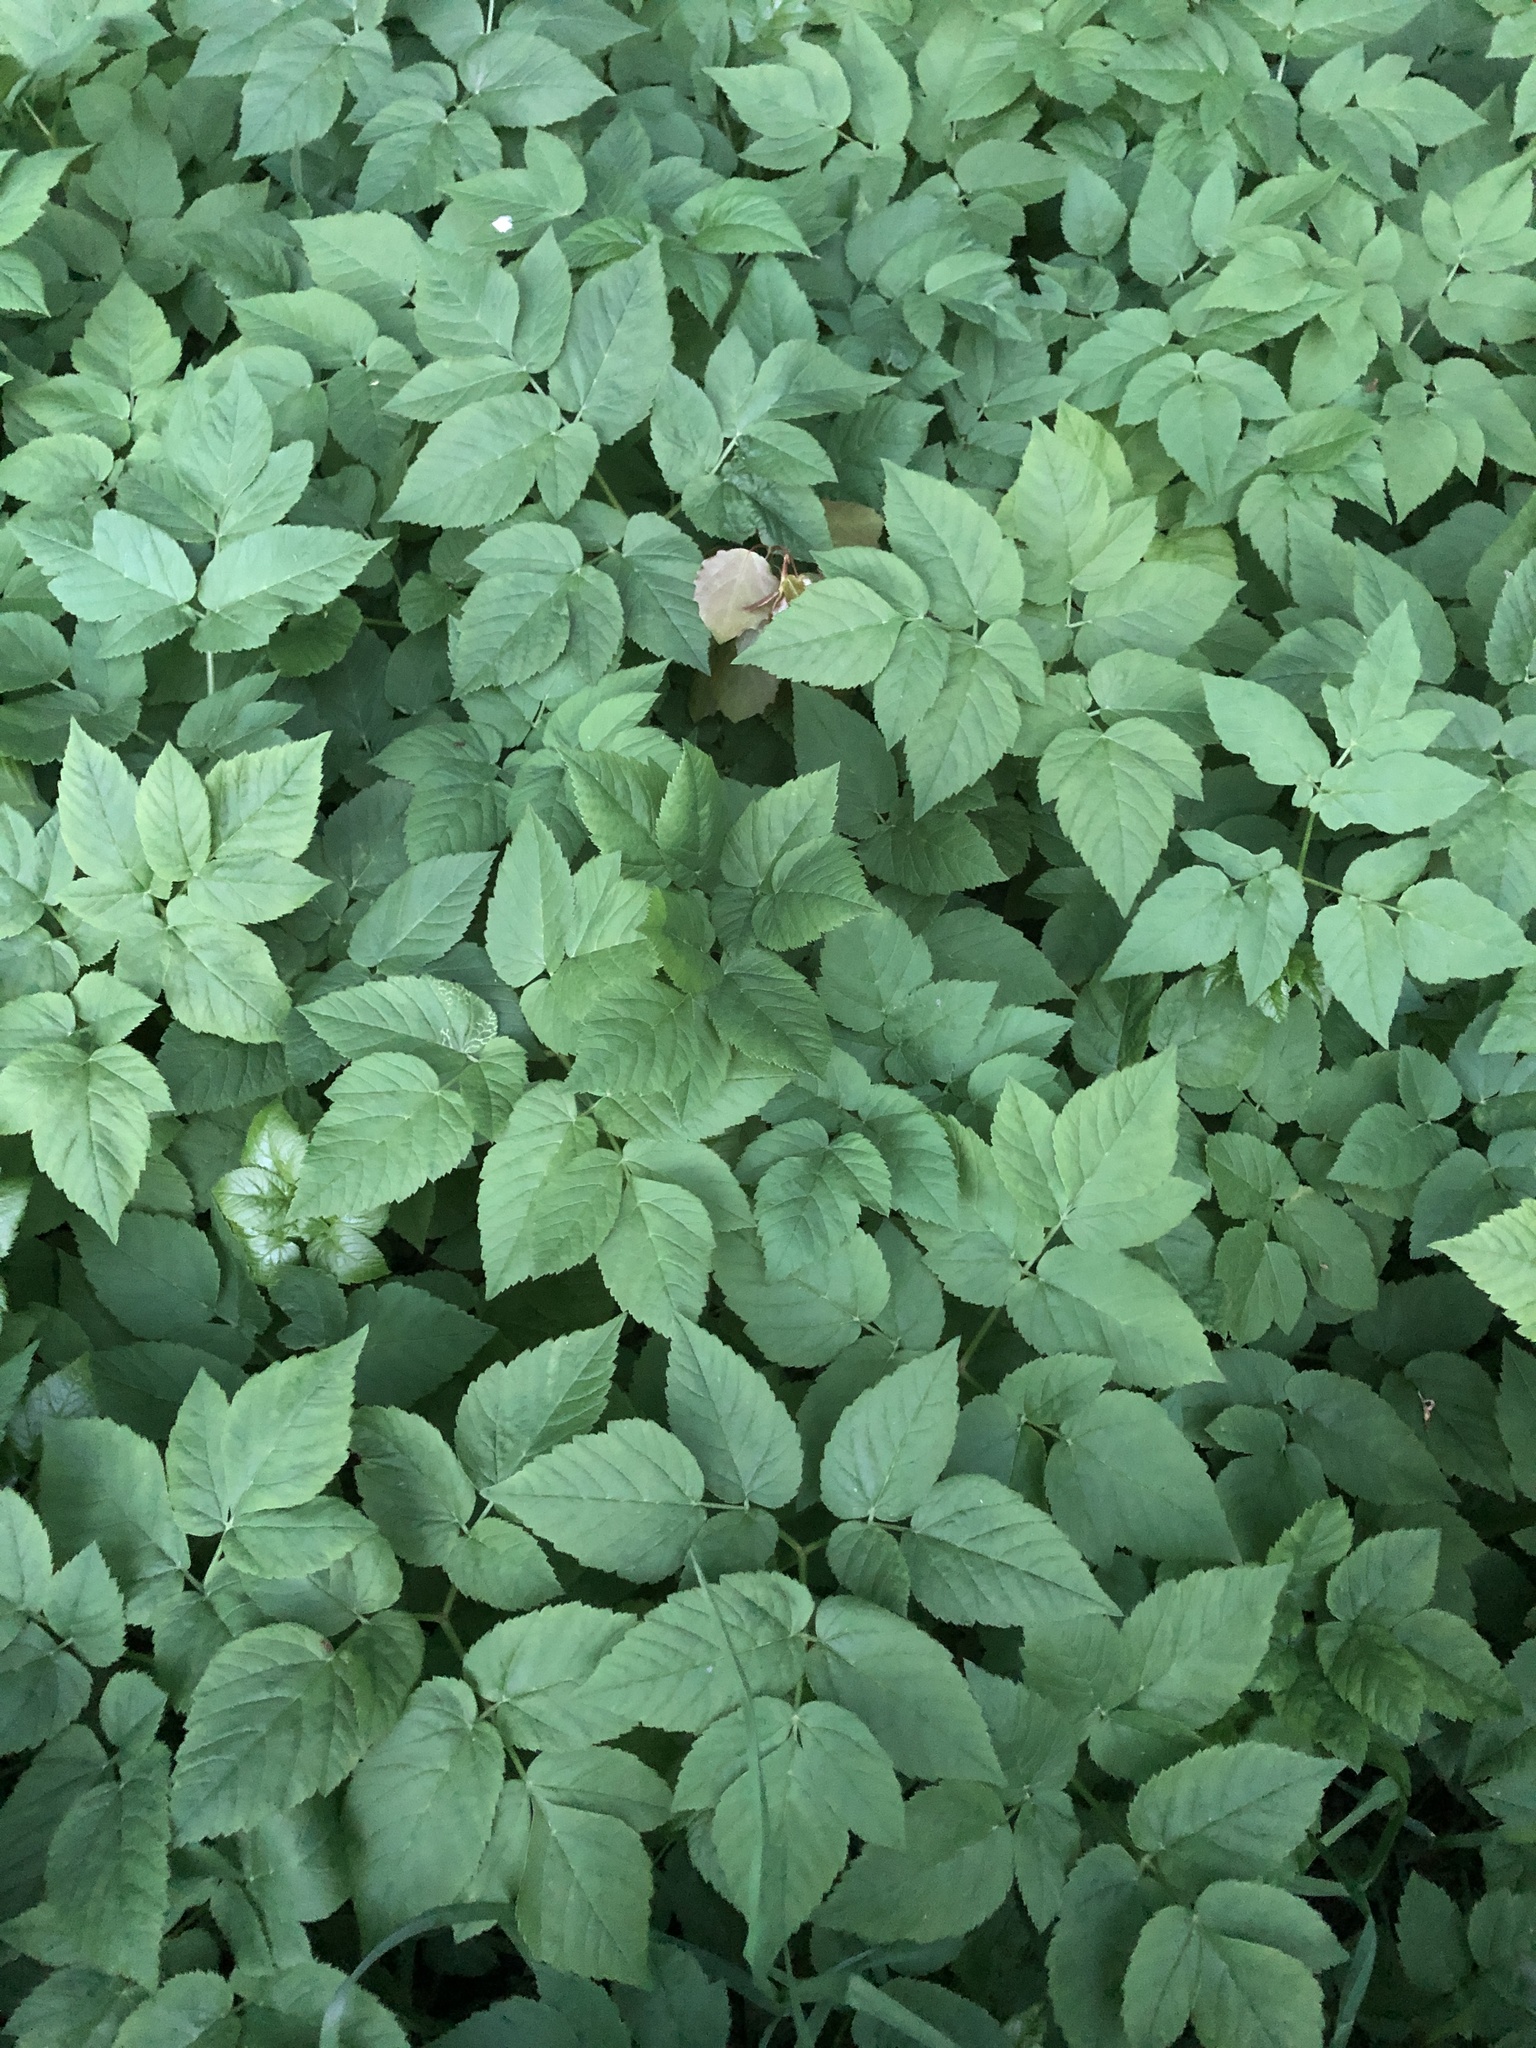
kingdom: Plantae
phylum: Tracheophyta
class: Magnoliopsida
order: Apiales
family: Apiaceae
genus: Aegopodium
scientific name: Aegopodium podagraria
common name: Ground-elder
